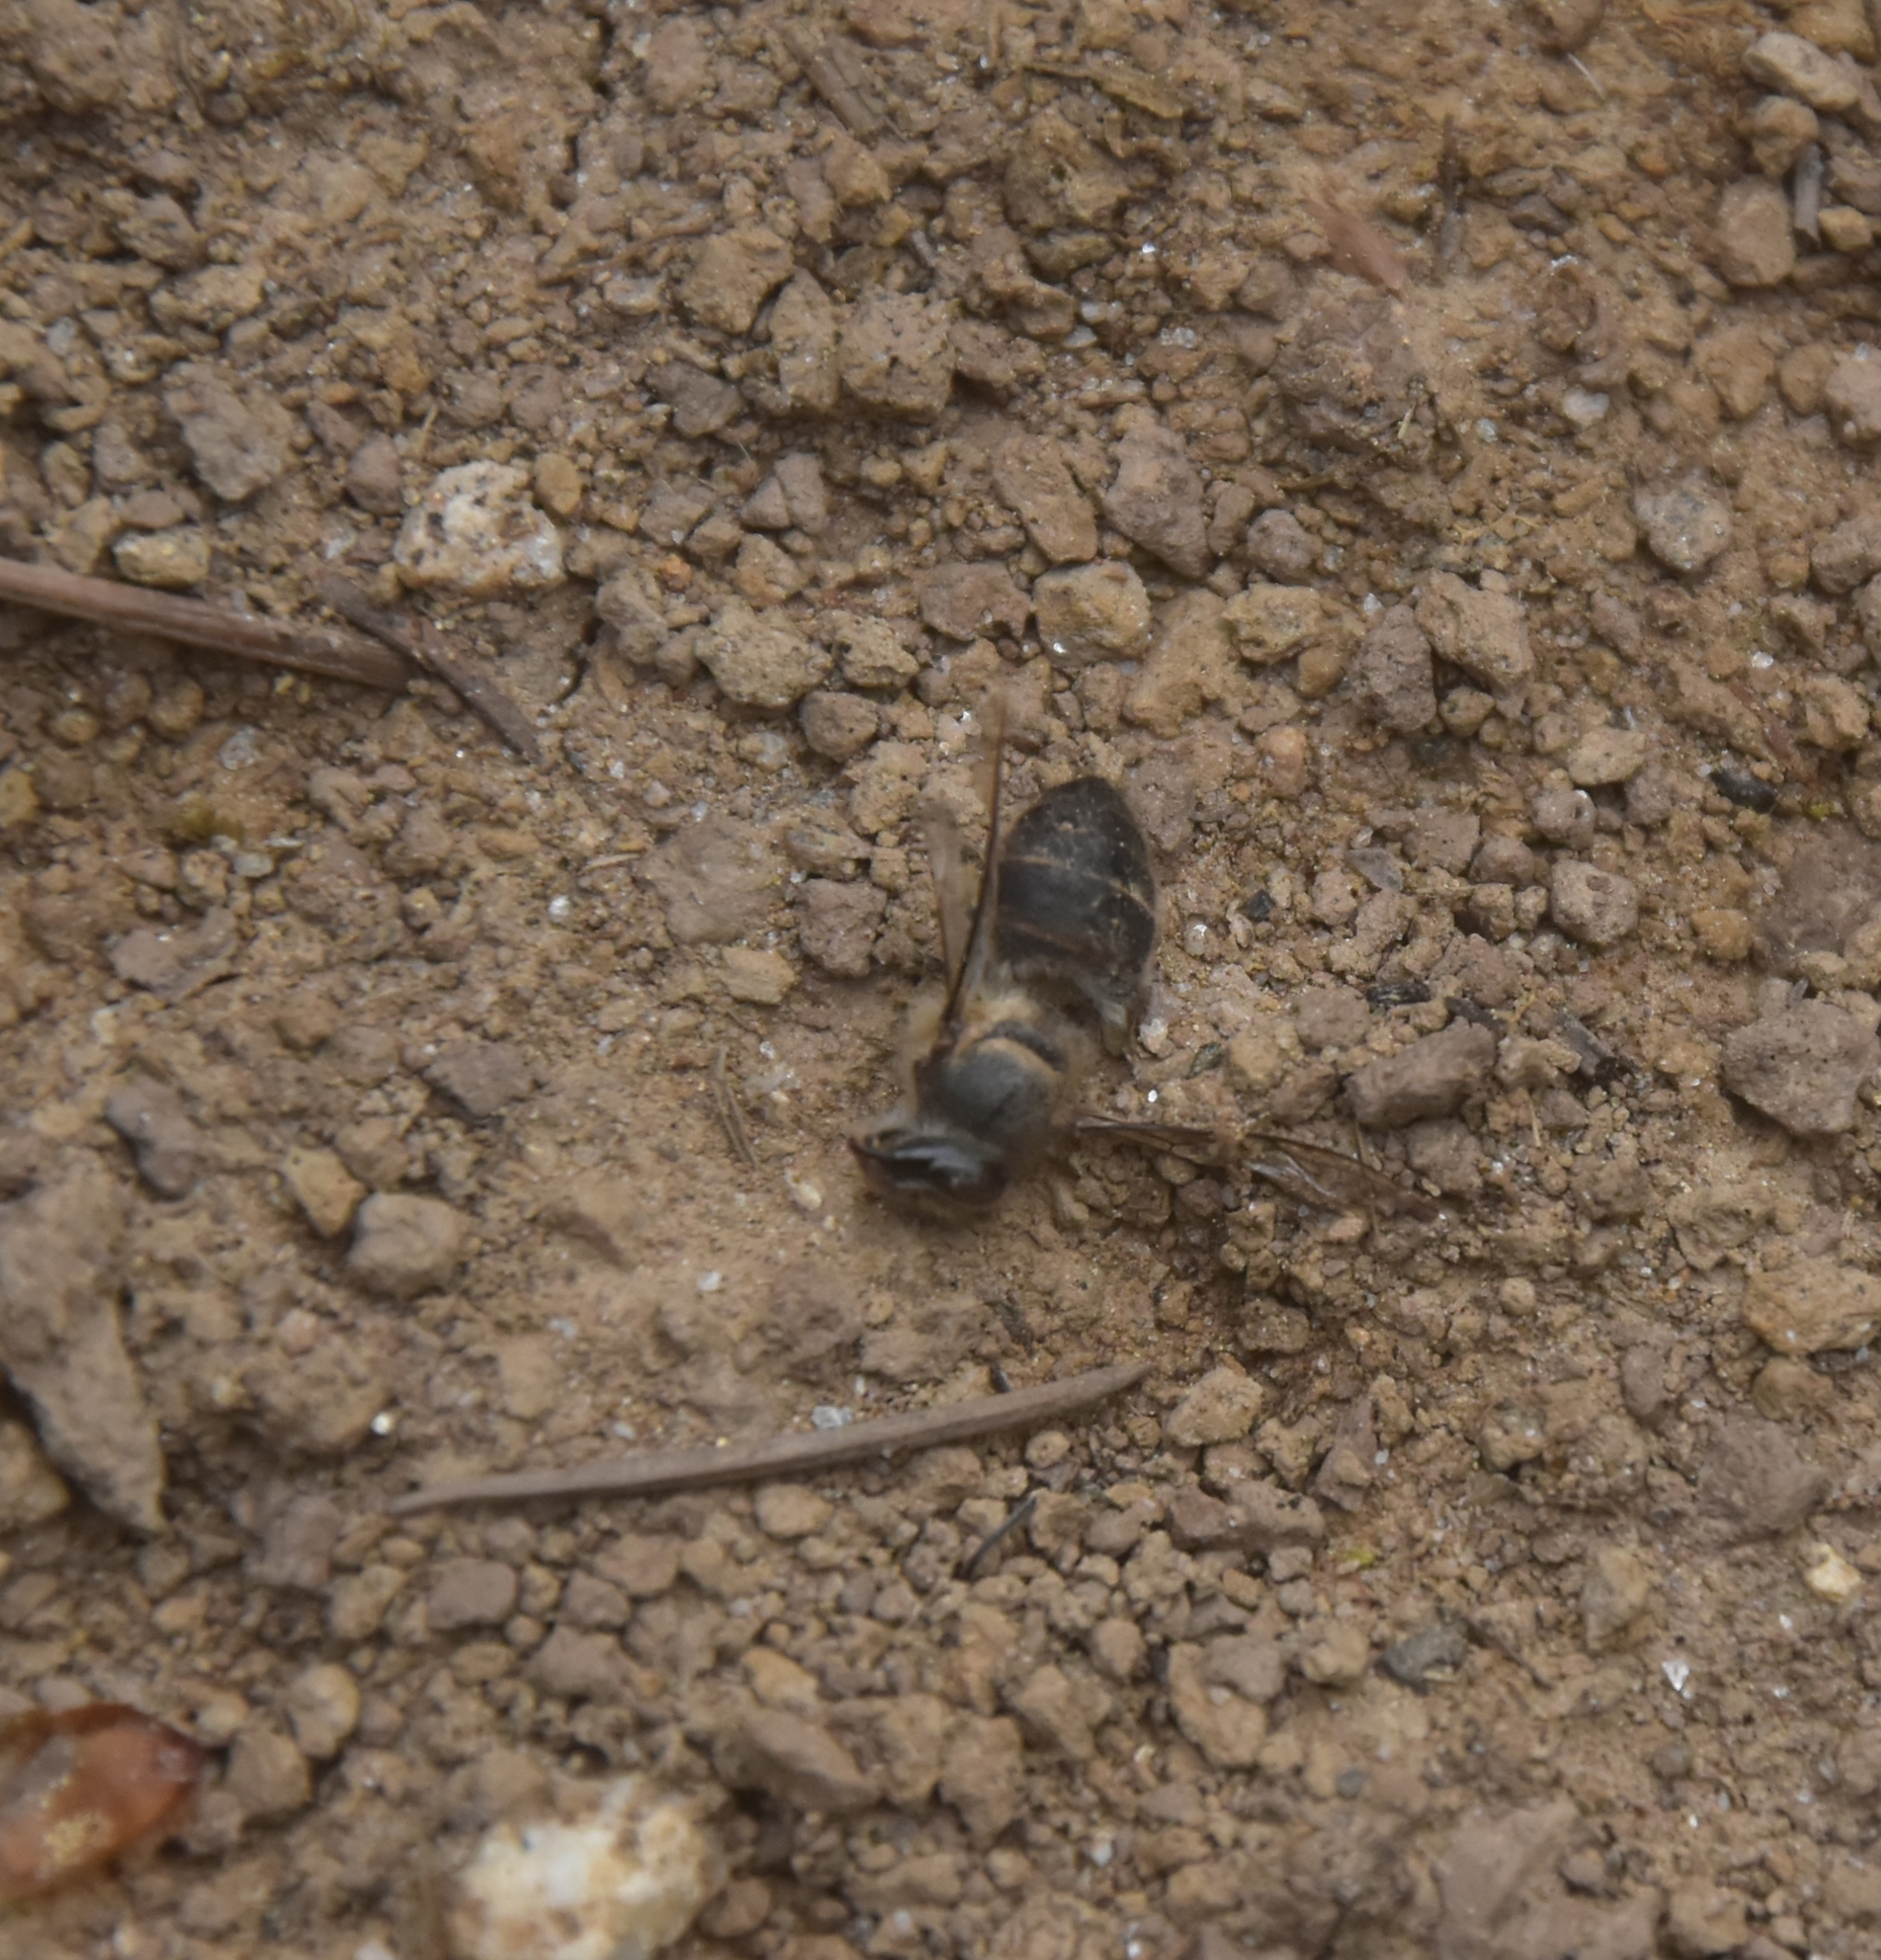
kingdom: Animalia
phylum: Arthropoda
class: Insecta
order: Hymenoptera
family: Apidae
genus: Apis
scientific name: Apis cerana
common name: Honey bee
